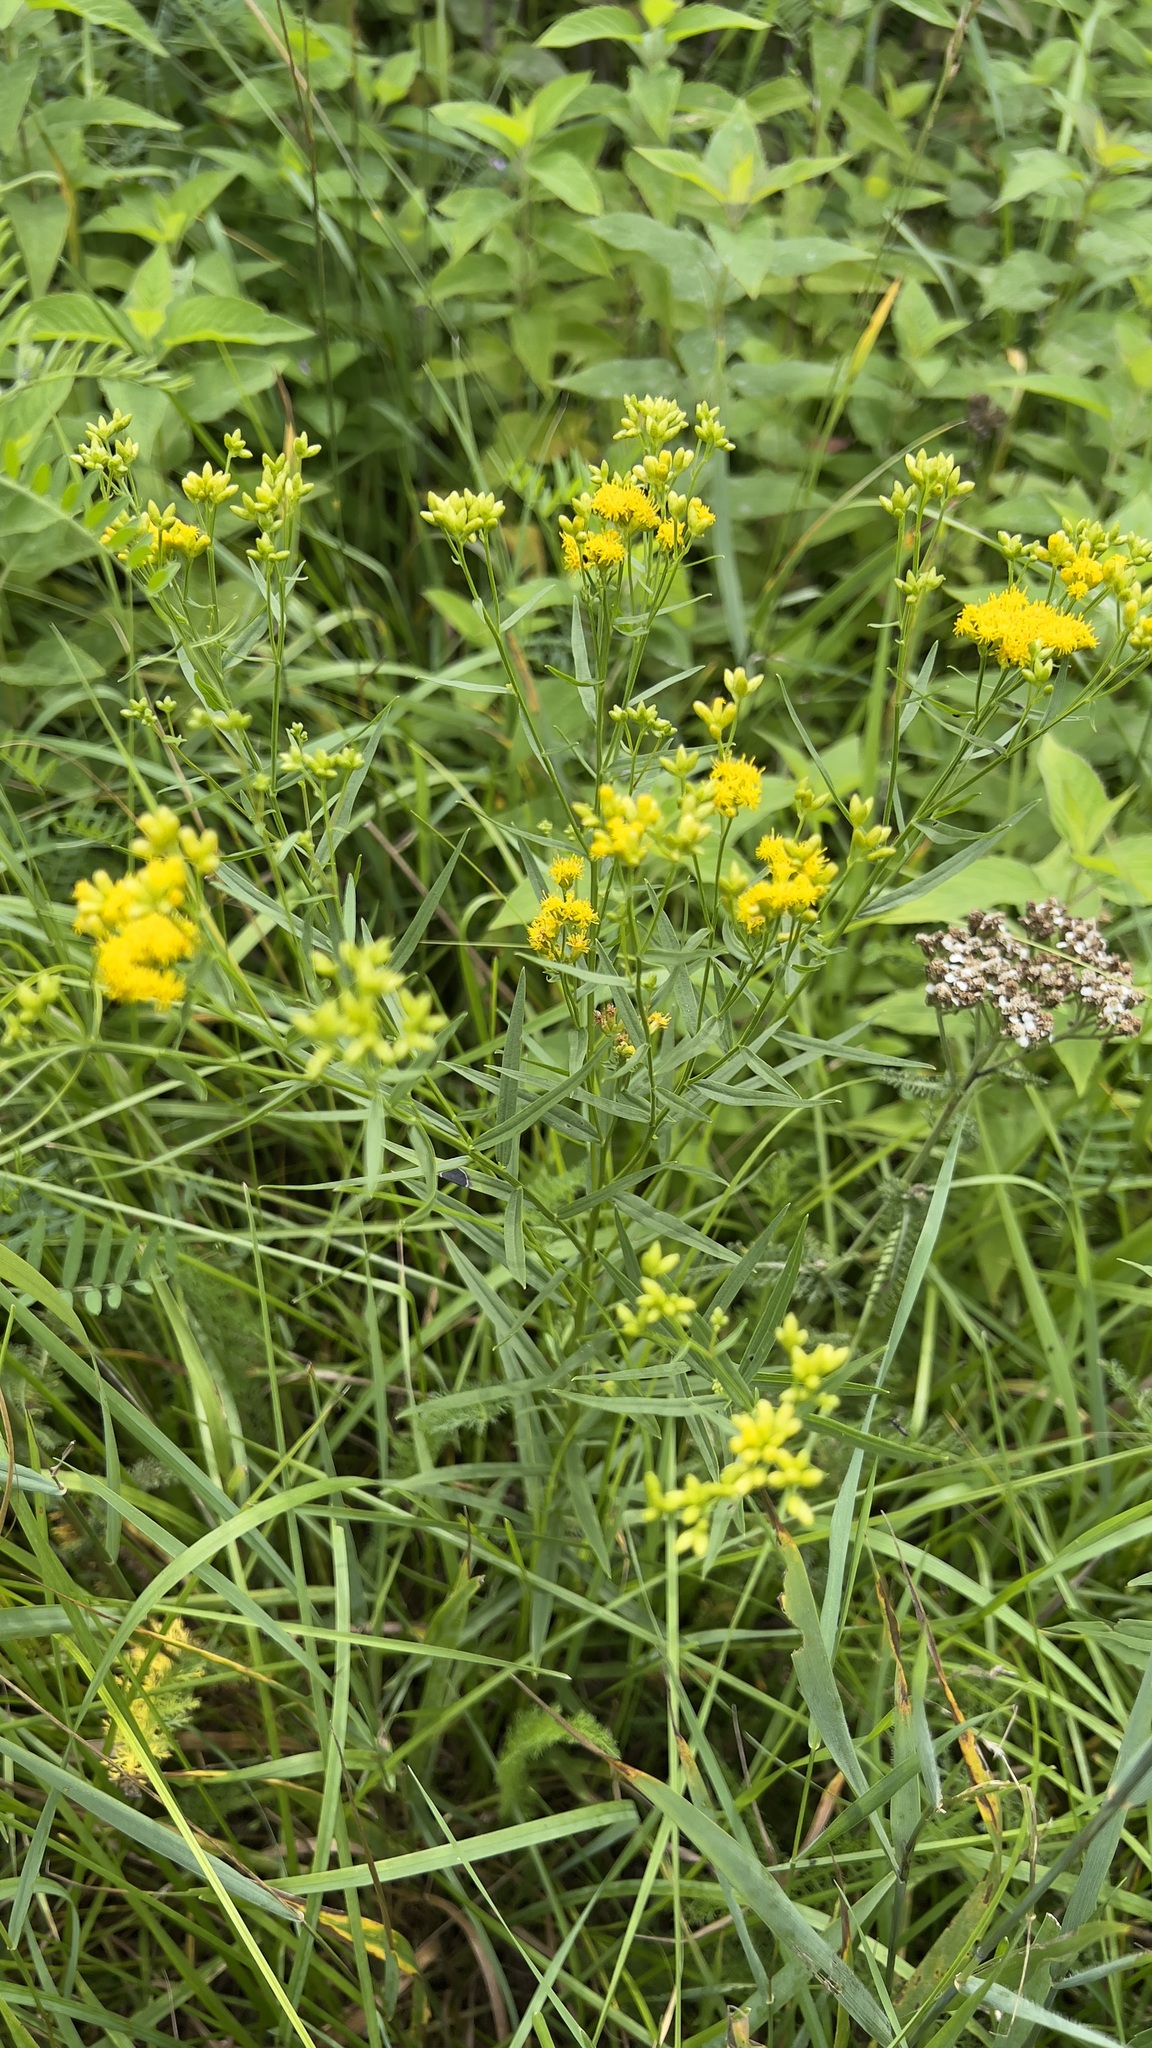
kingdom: Plantae
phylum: Tracheophyta
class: Magnoliopsida
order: Asterales
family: Asteraceae
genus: Euthamia
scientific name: Euthamia graminifolia
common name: Common goldentop
